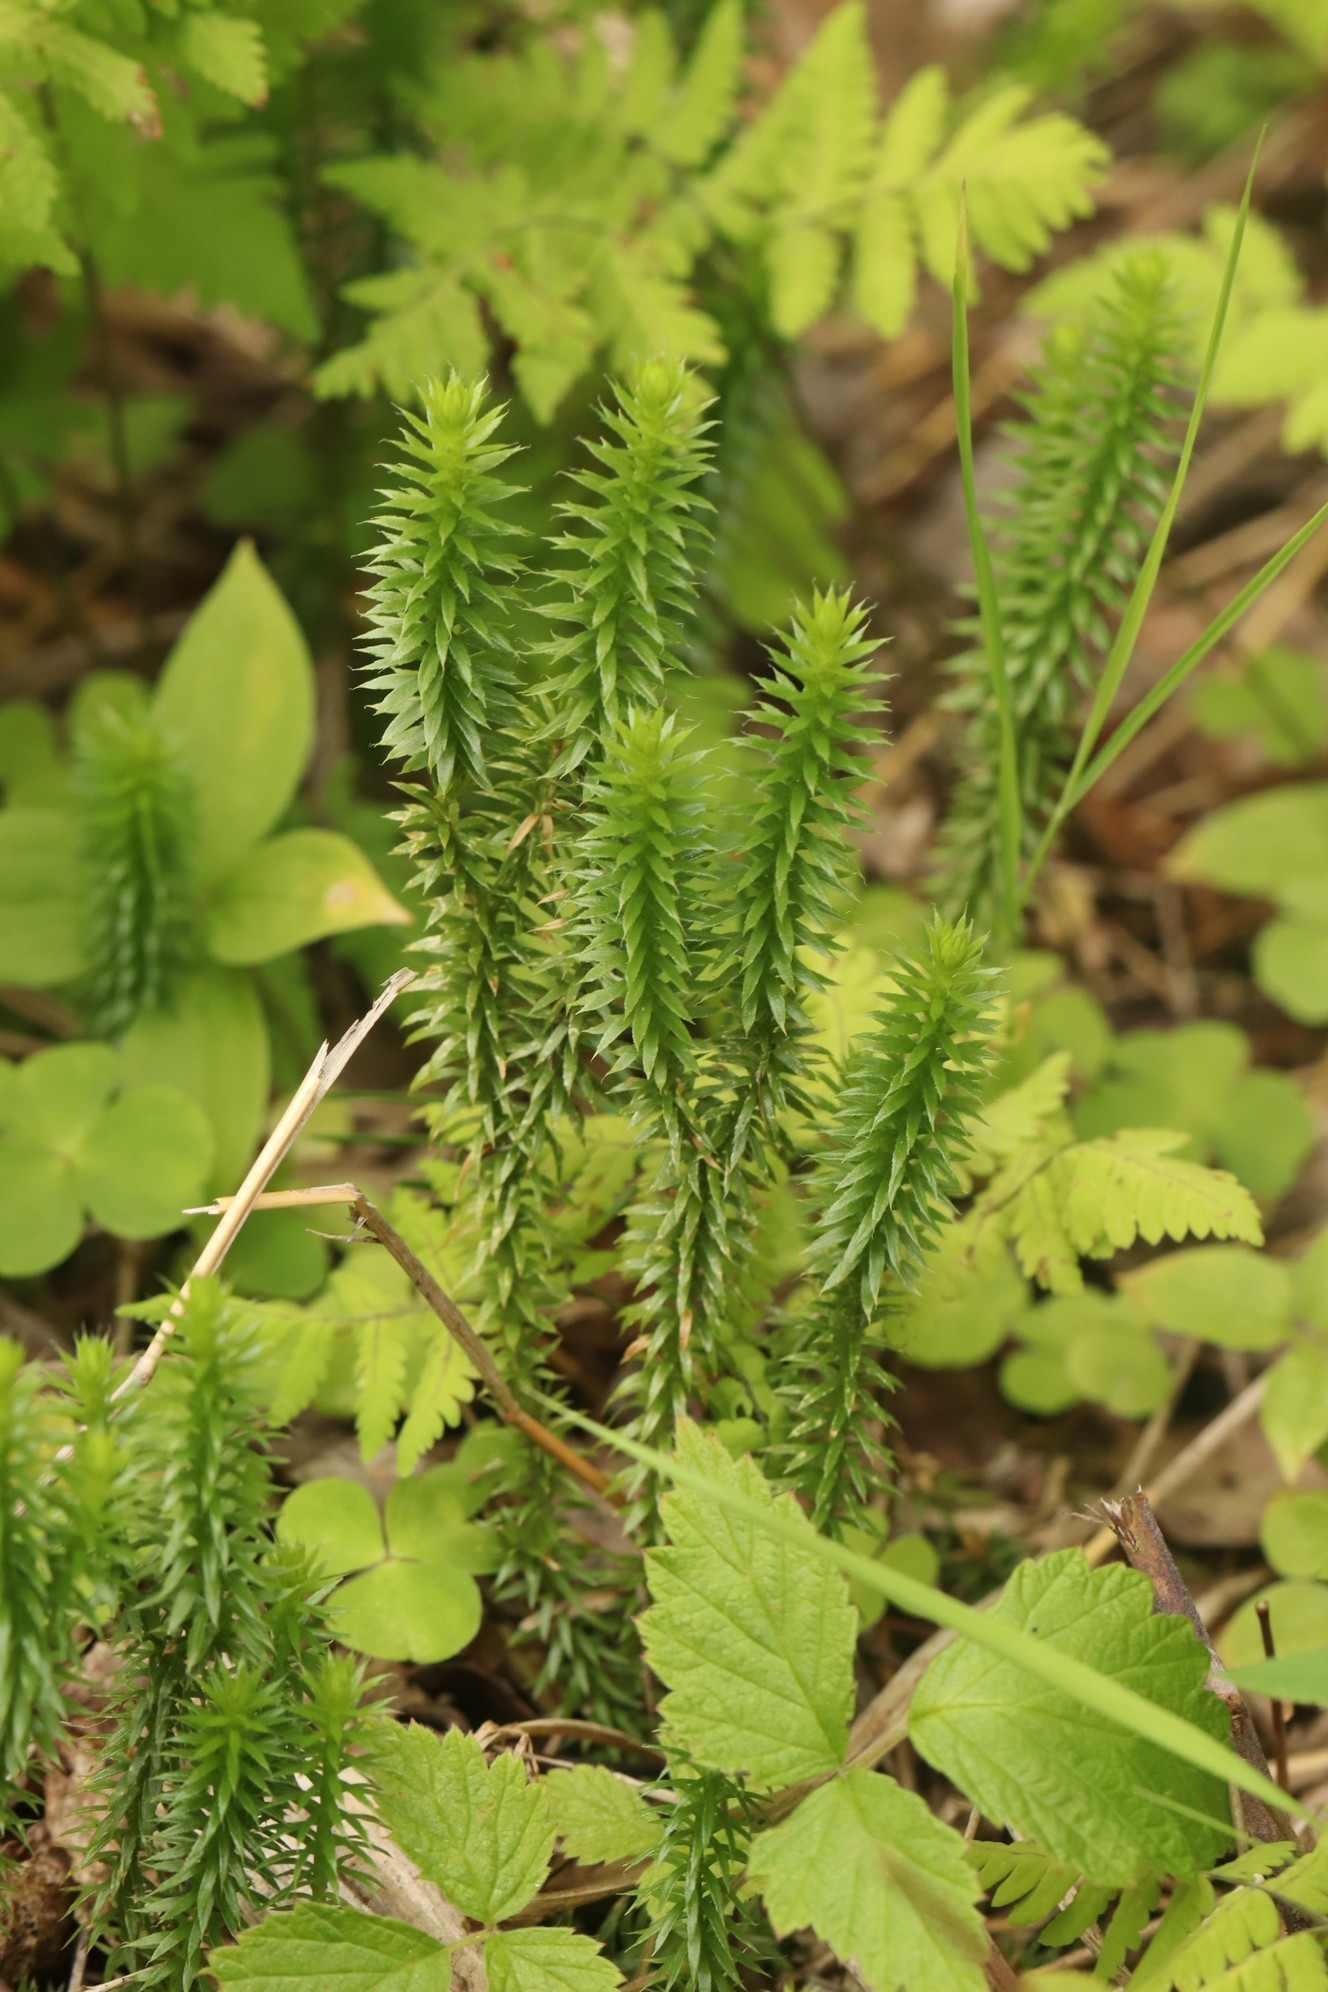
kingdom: Plantae
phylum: Tracheophyta
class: Lycopodiopsida
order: Lycopodiales
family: Lycopodiaceae
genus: Spinulum
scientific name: Spinulum annotinum
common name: Interrupted club-moss
